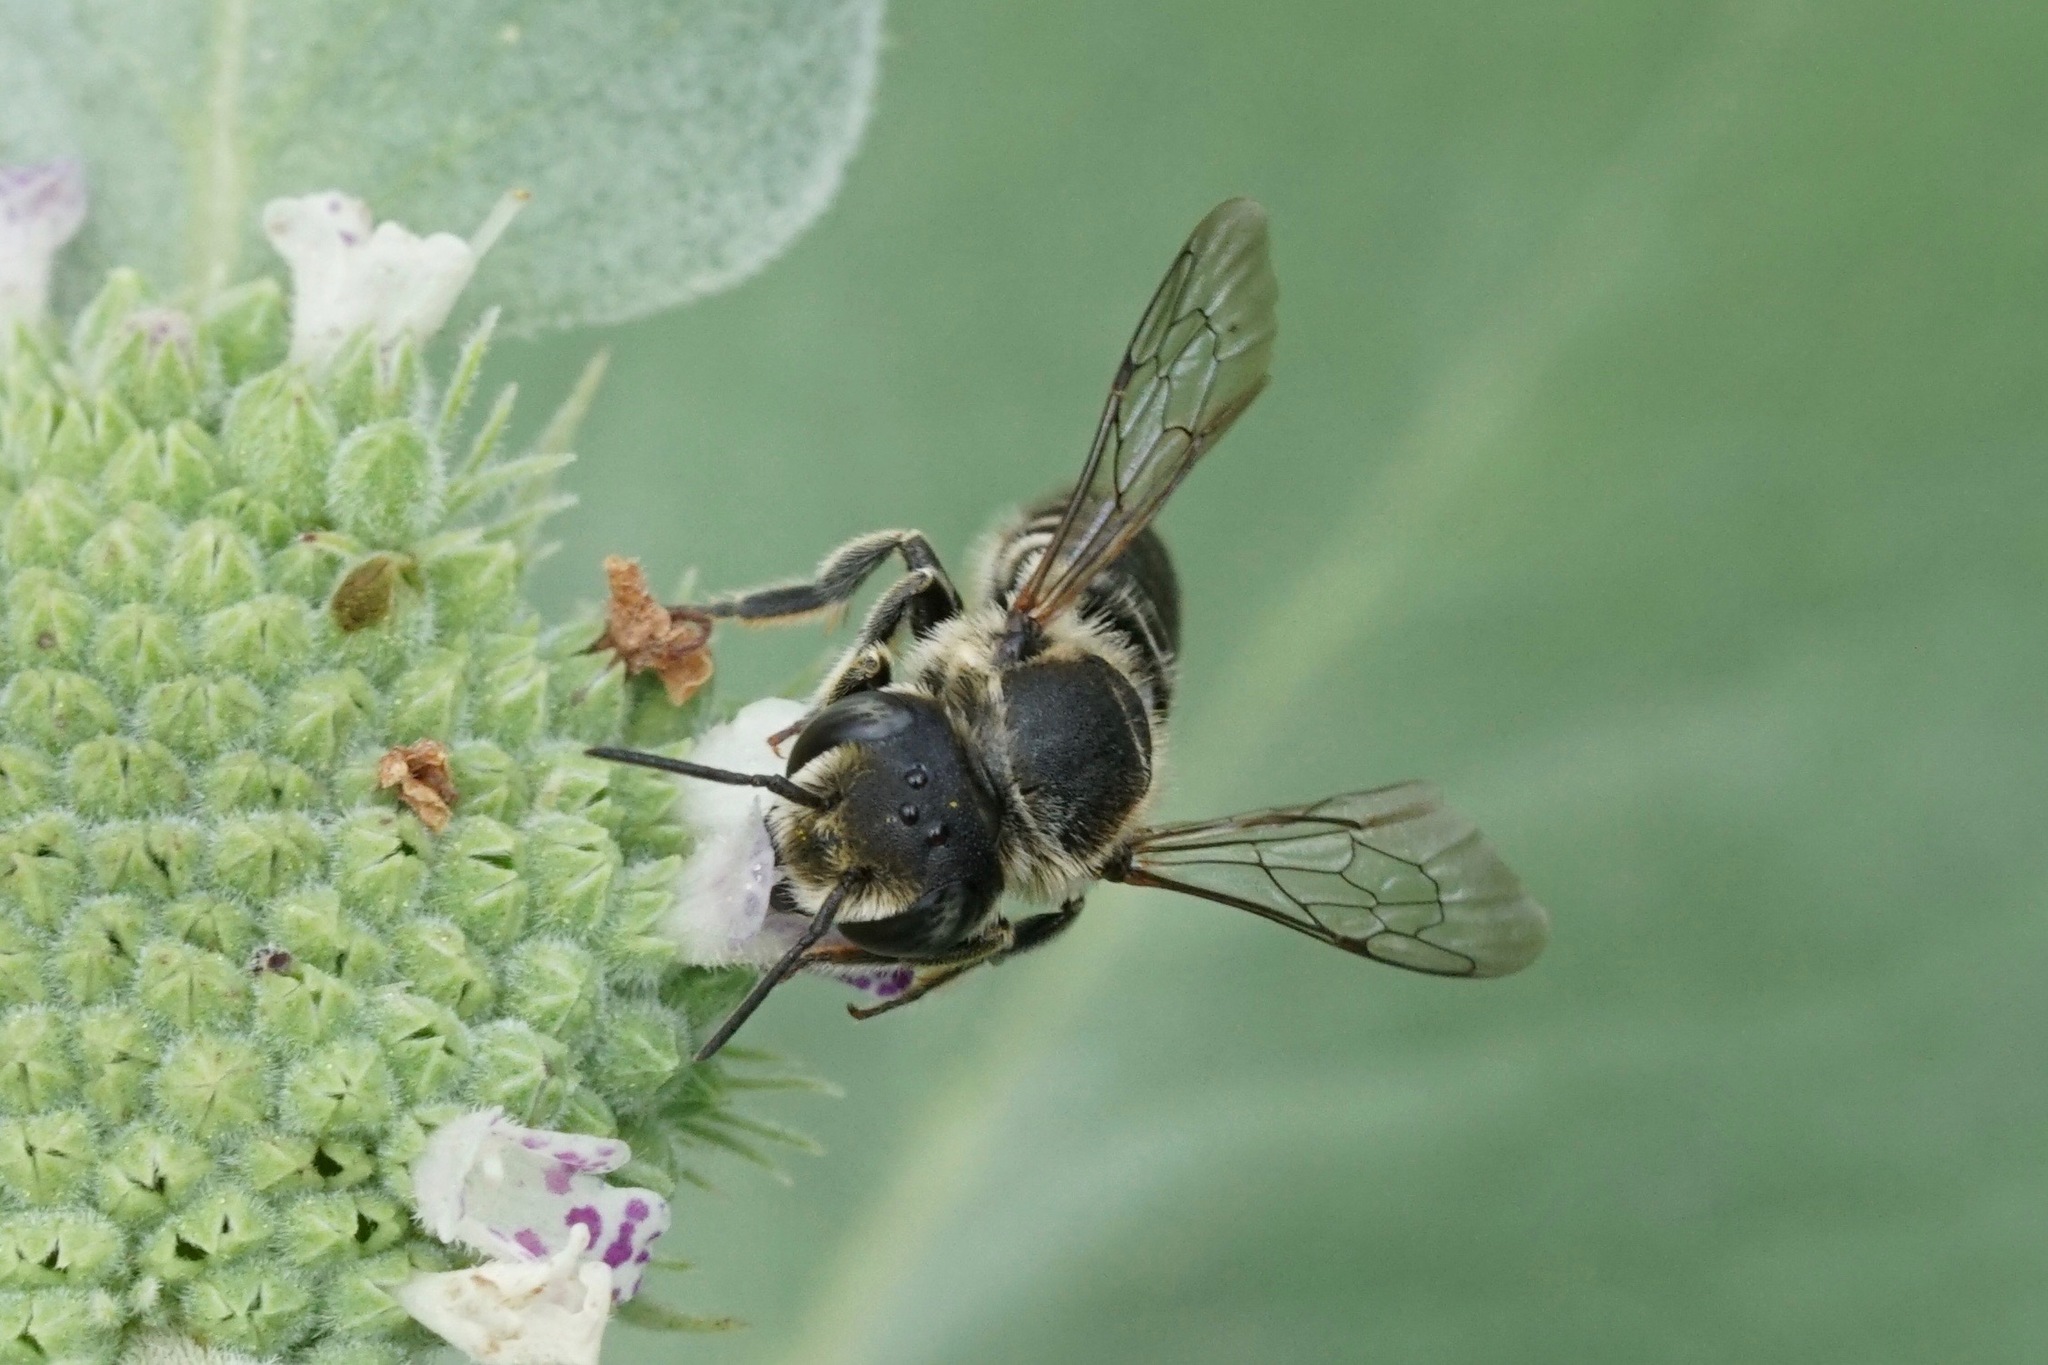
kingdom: Animalia
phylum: Arthropoda
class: Insecta
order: Hymenoptera
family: Megachilidae
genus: Megachile
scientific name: Megachile rotundata
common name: Alfalfa leafcutting bee
